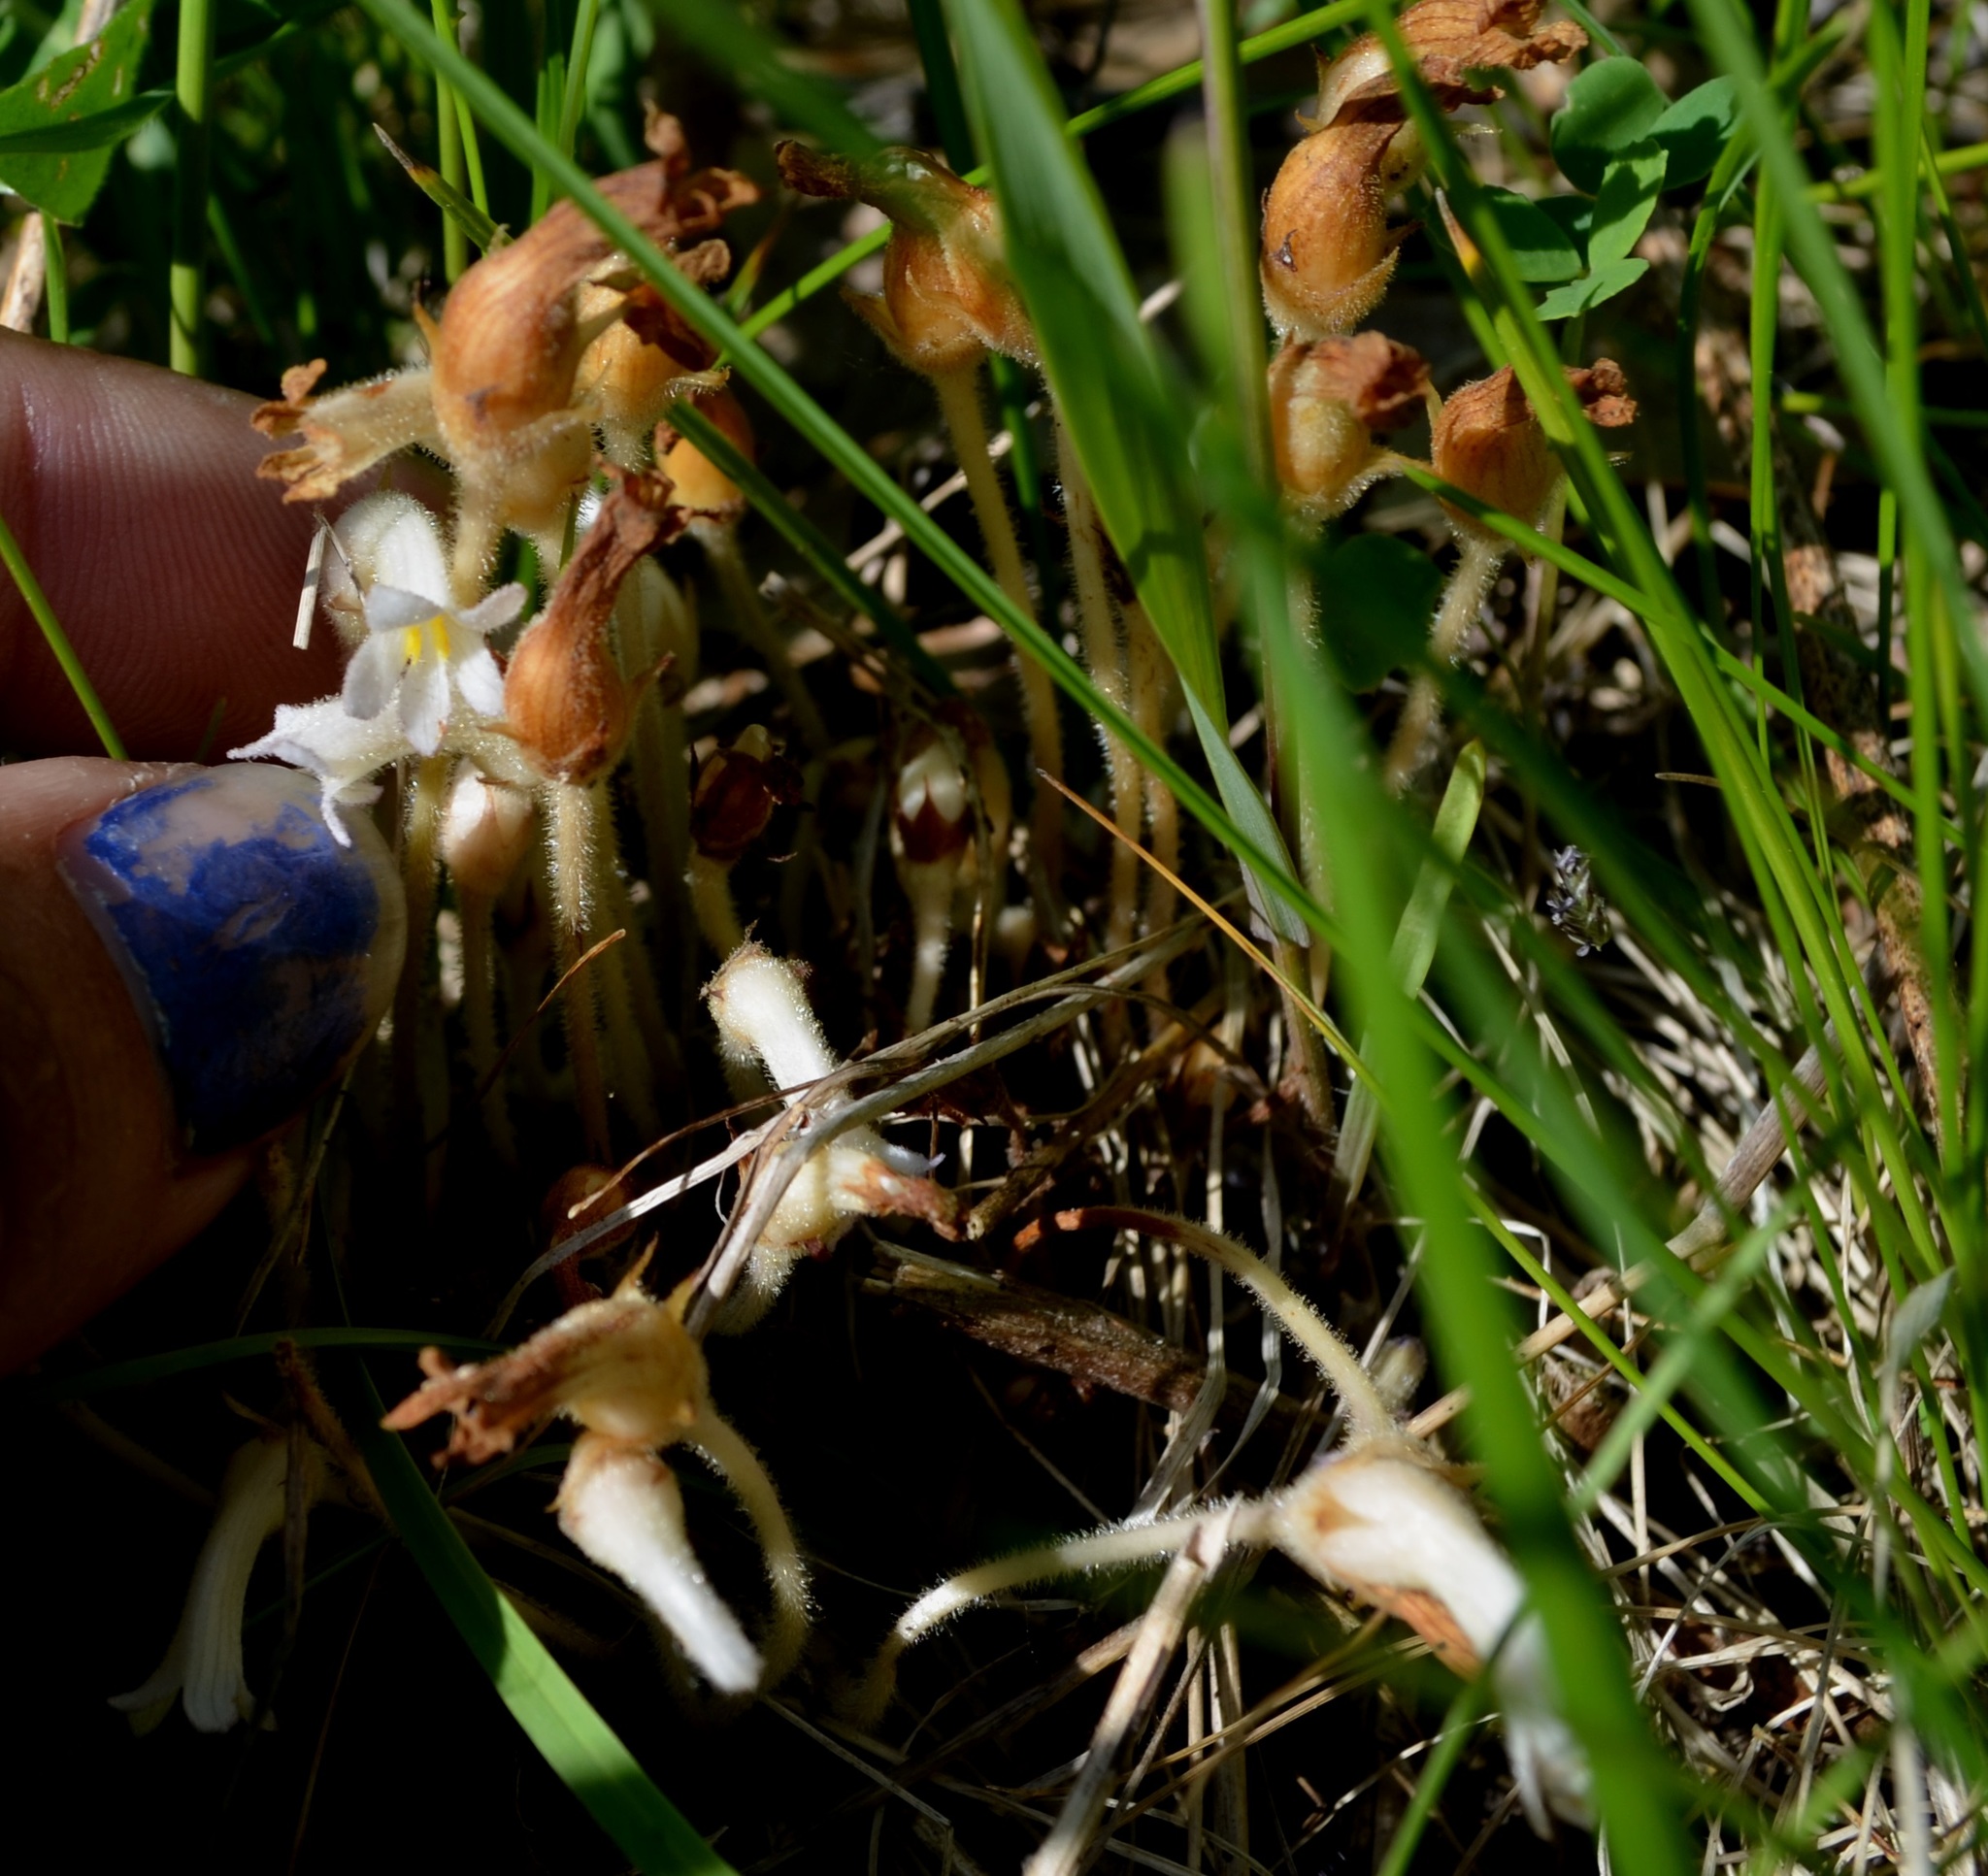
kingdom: Plantae
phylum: Tracheophyta
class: Magnoliopsida
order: Lamiales
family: Orobanchaceae
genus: Aphyllon
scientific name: Aphyllon uniflorum
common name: One-flowered broomrape
